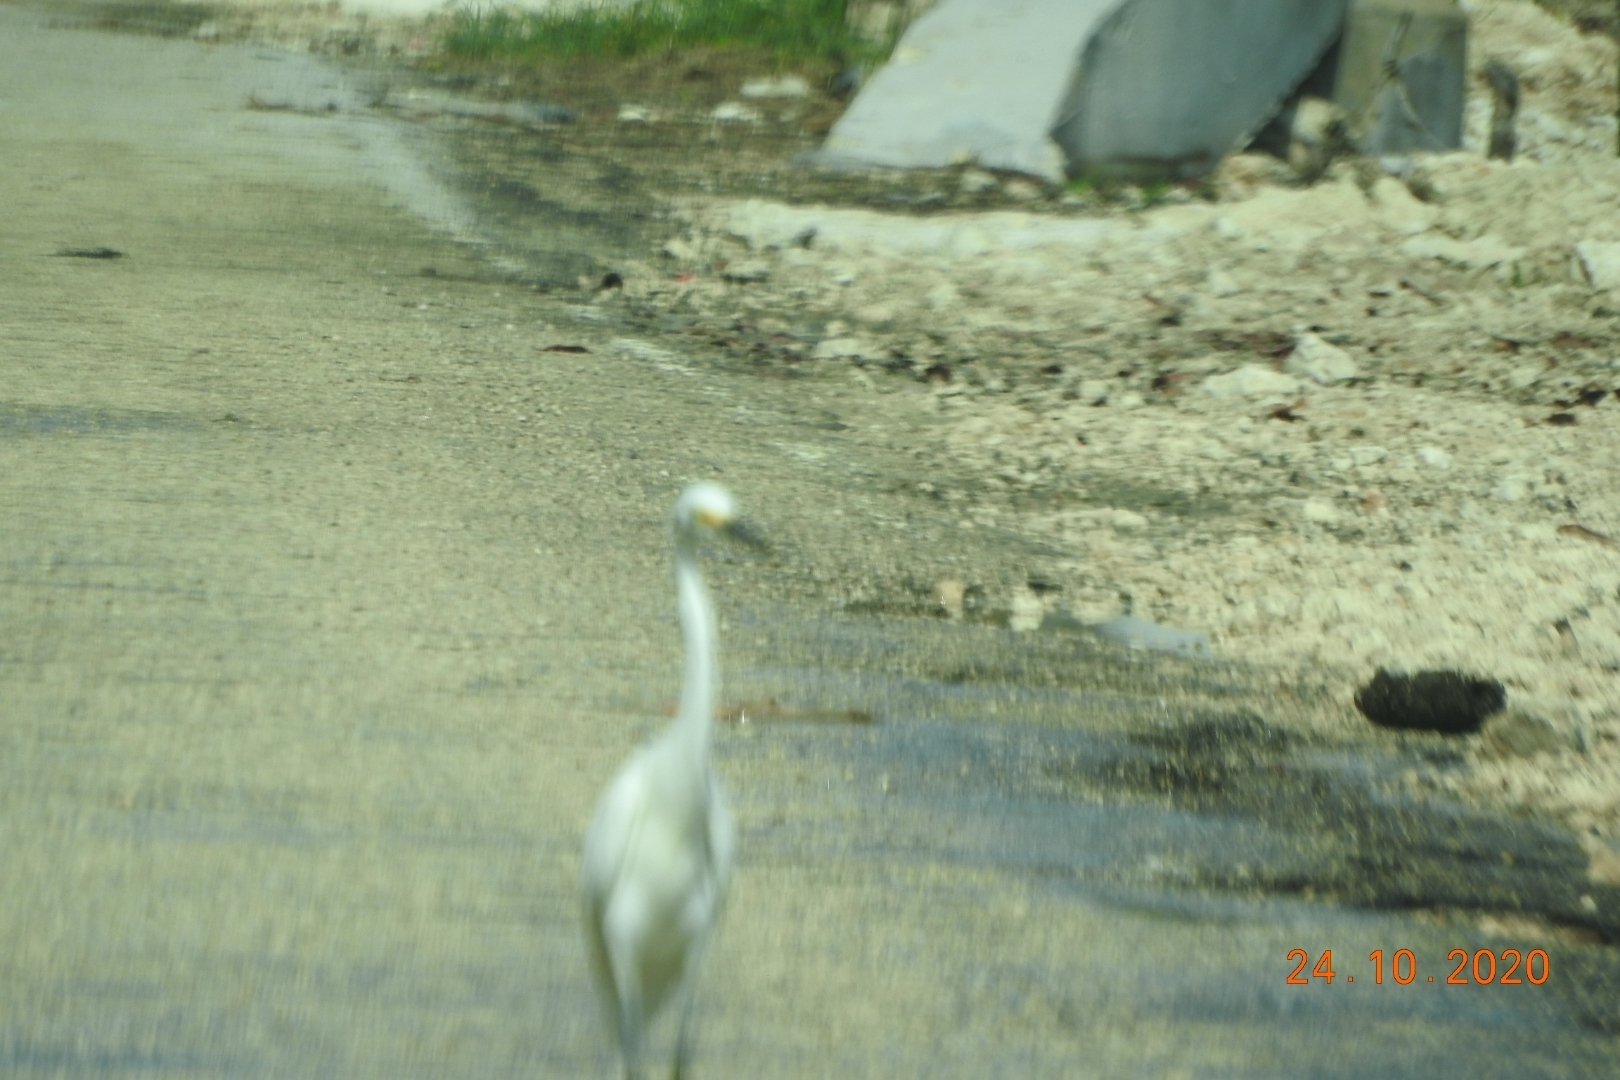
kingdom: Animalia
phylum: Chordata
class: Aves
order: Pelecaniformes
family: Ardeidae
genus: Egretta
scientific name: Egretta thula
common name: Snowy egret
